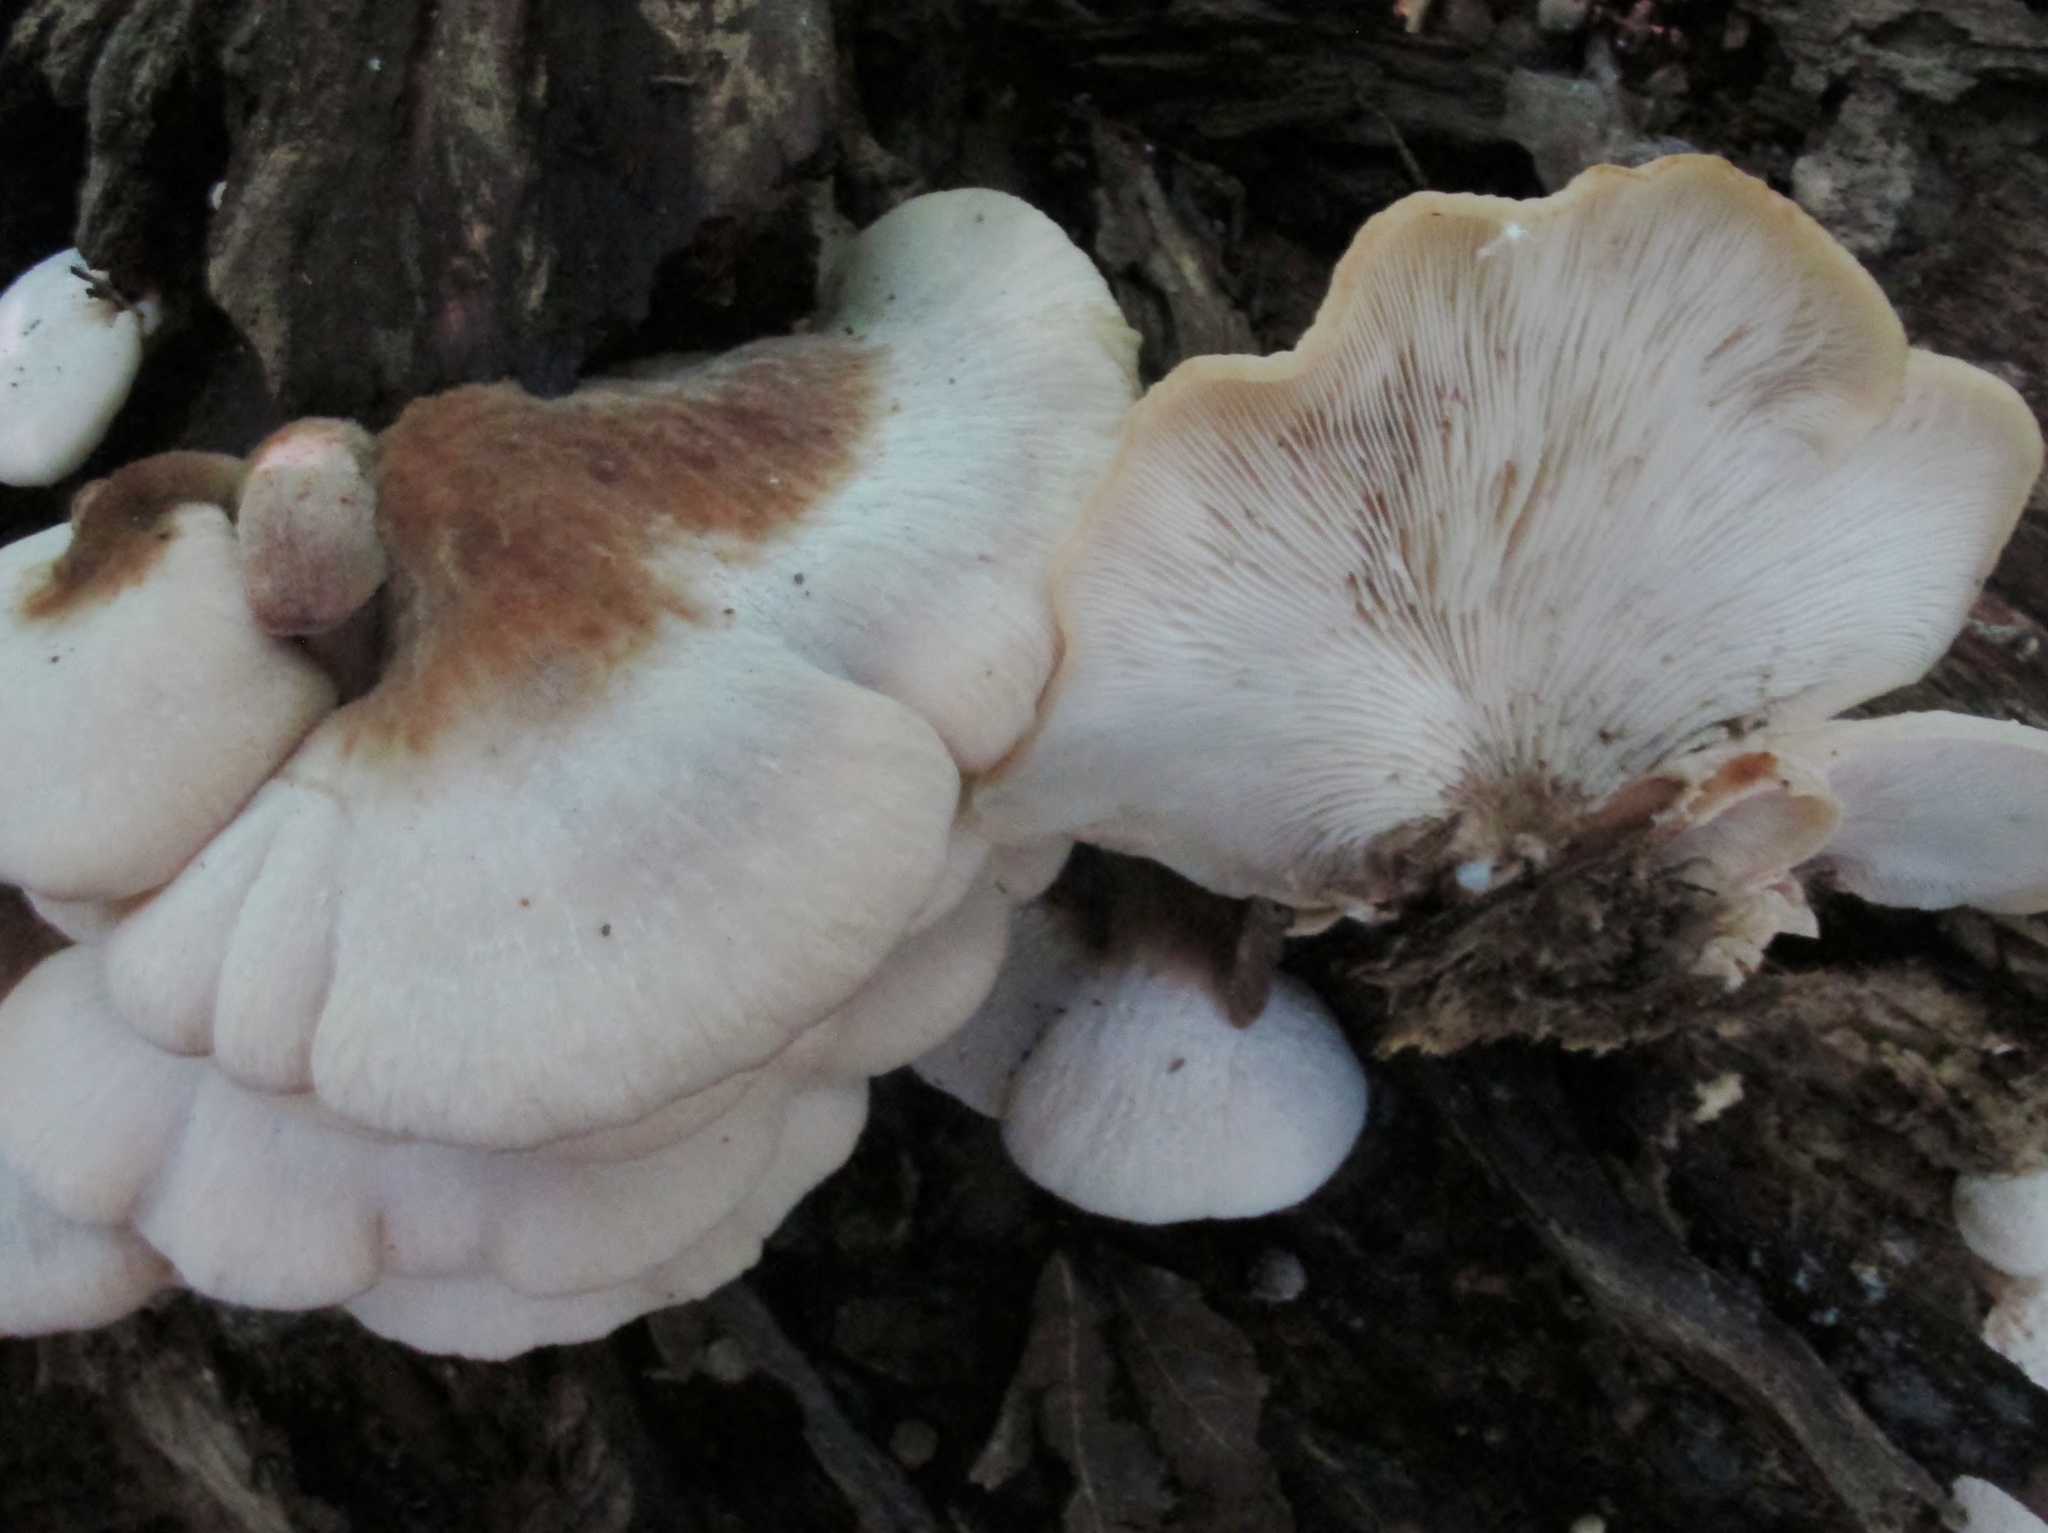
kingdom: Fungi
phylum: Basidiomycota
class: Agaricomycetes
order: Russulales
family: Auriscalpiaceae
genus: Lentinellus
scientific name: Lentinellus ursinus
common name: Bear lentinus
